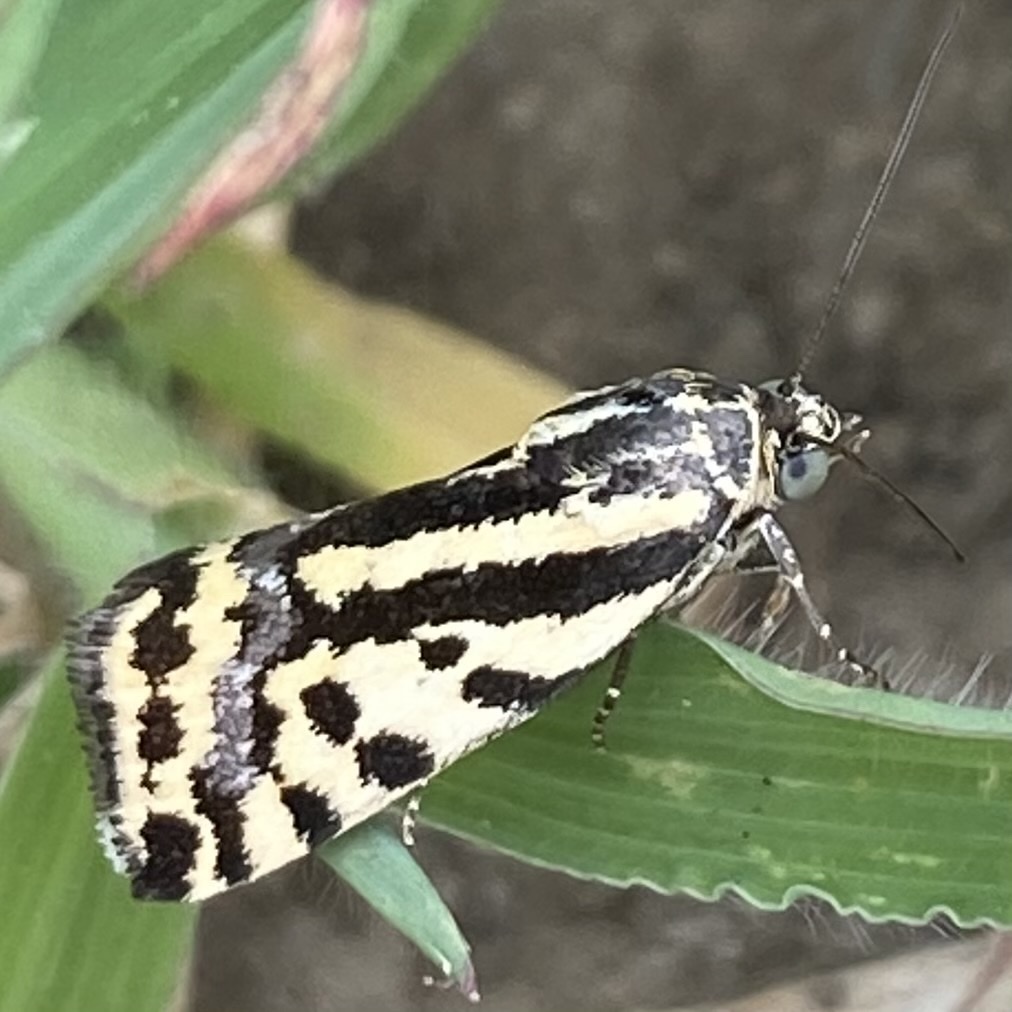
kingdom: Animalia
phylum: Arthropoda
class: Insecta
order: Lepidoptera
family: Noctuidae
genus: Acontia
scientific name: Acontia trabealis
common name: Spotted sulphur
